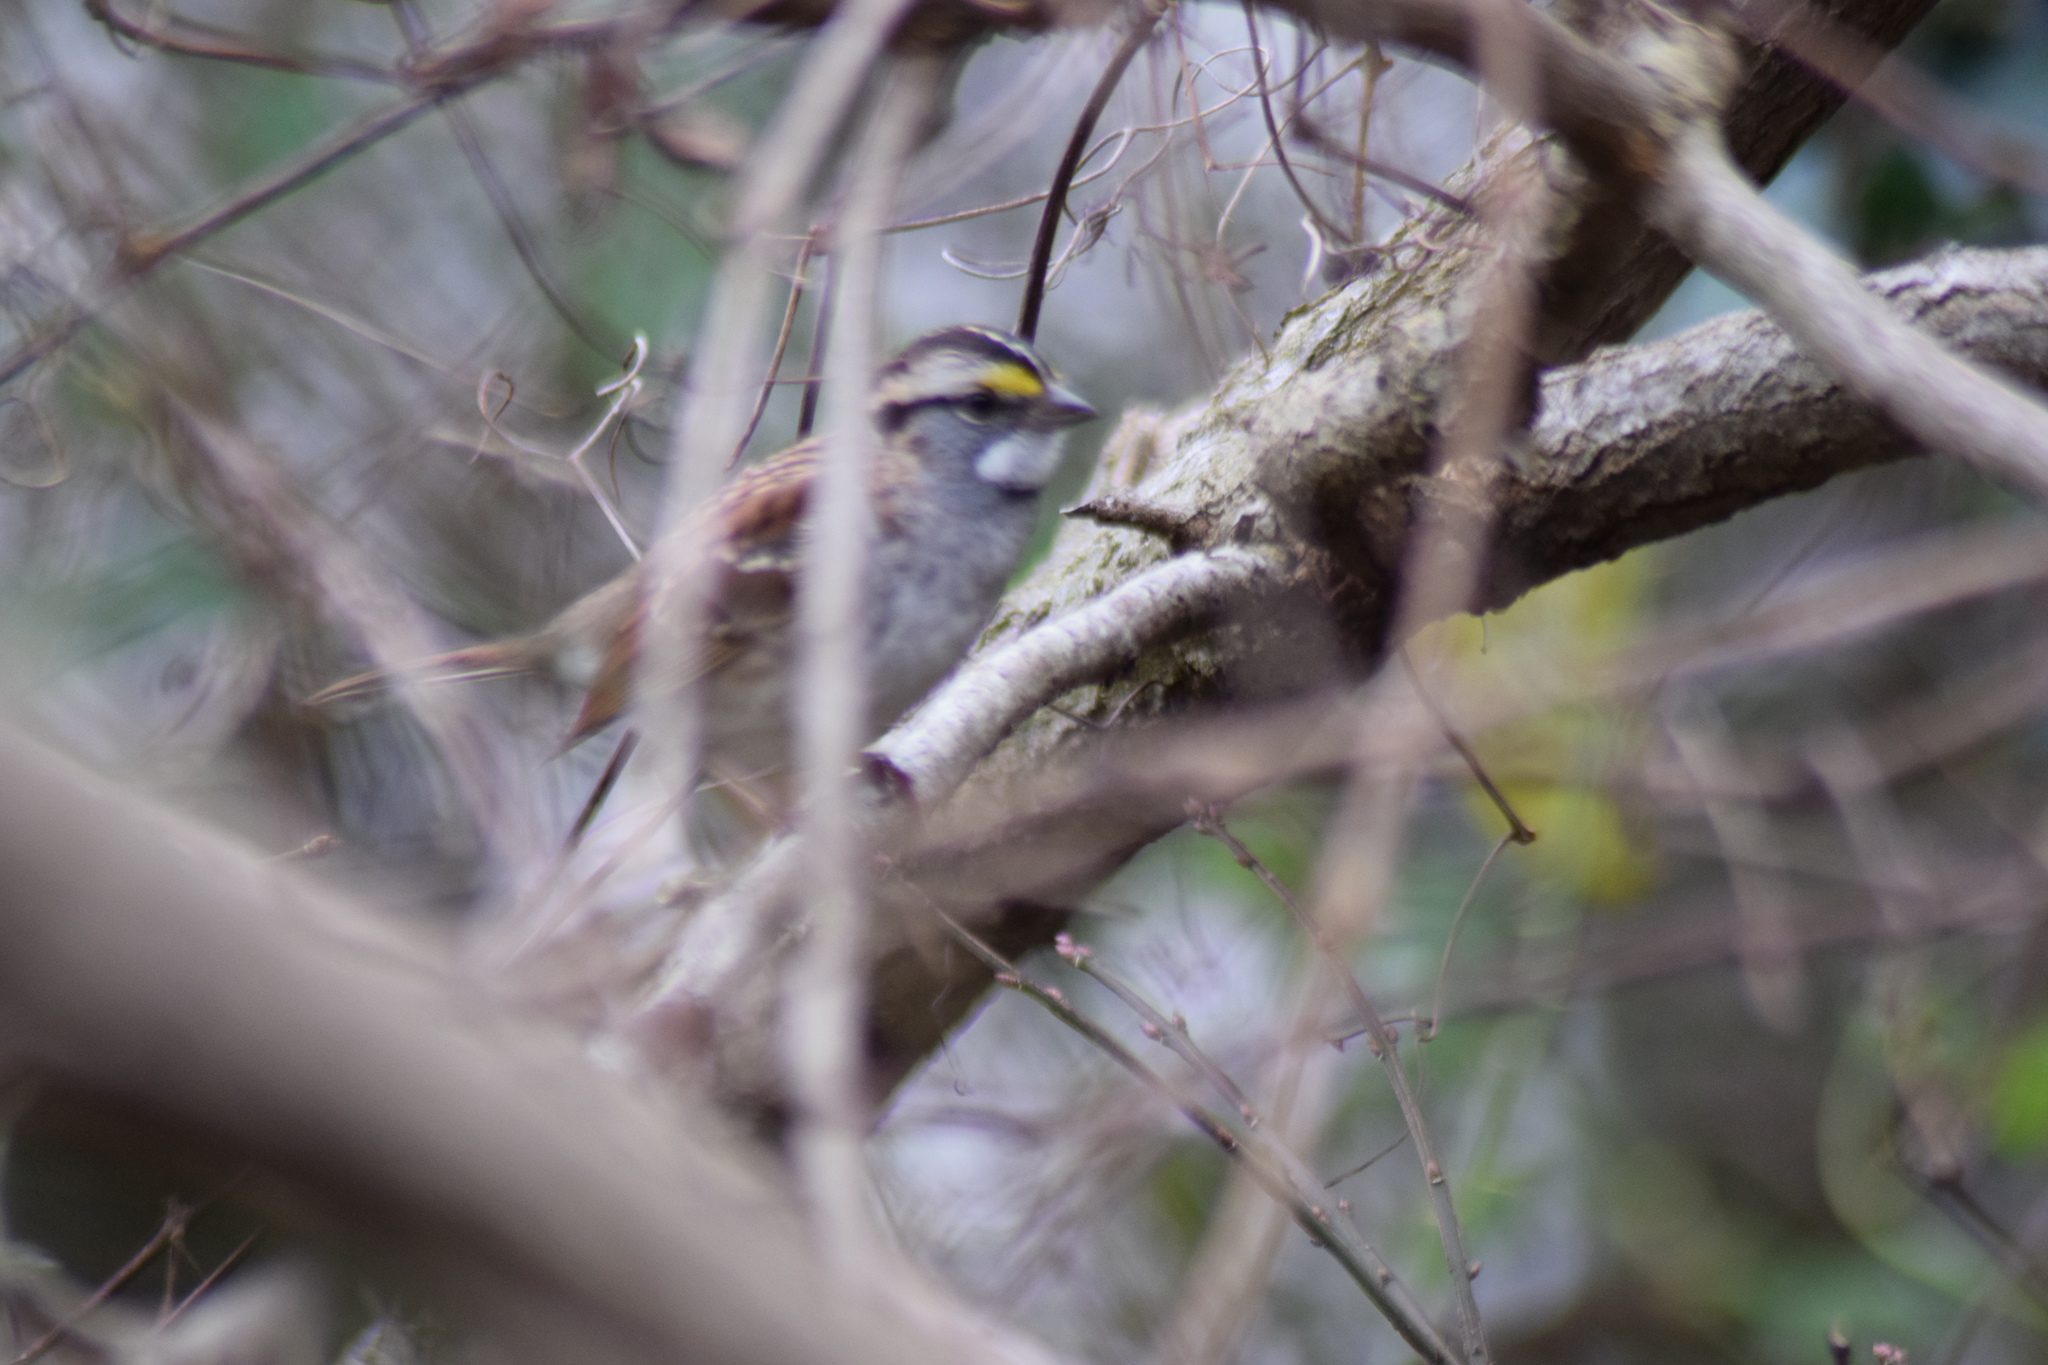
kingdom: Animalia
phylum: Chordata
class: Aves
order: Passeriformes
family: Passerellidae
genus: Zonotrichia
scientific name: Zonotrichia albicollis
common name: White-throated sparrow
